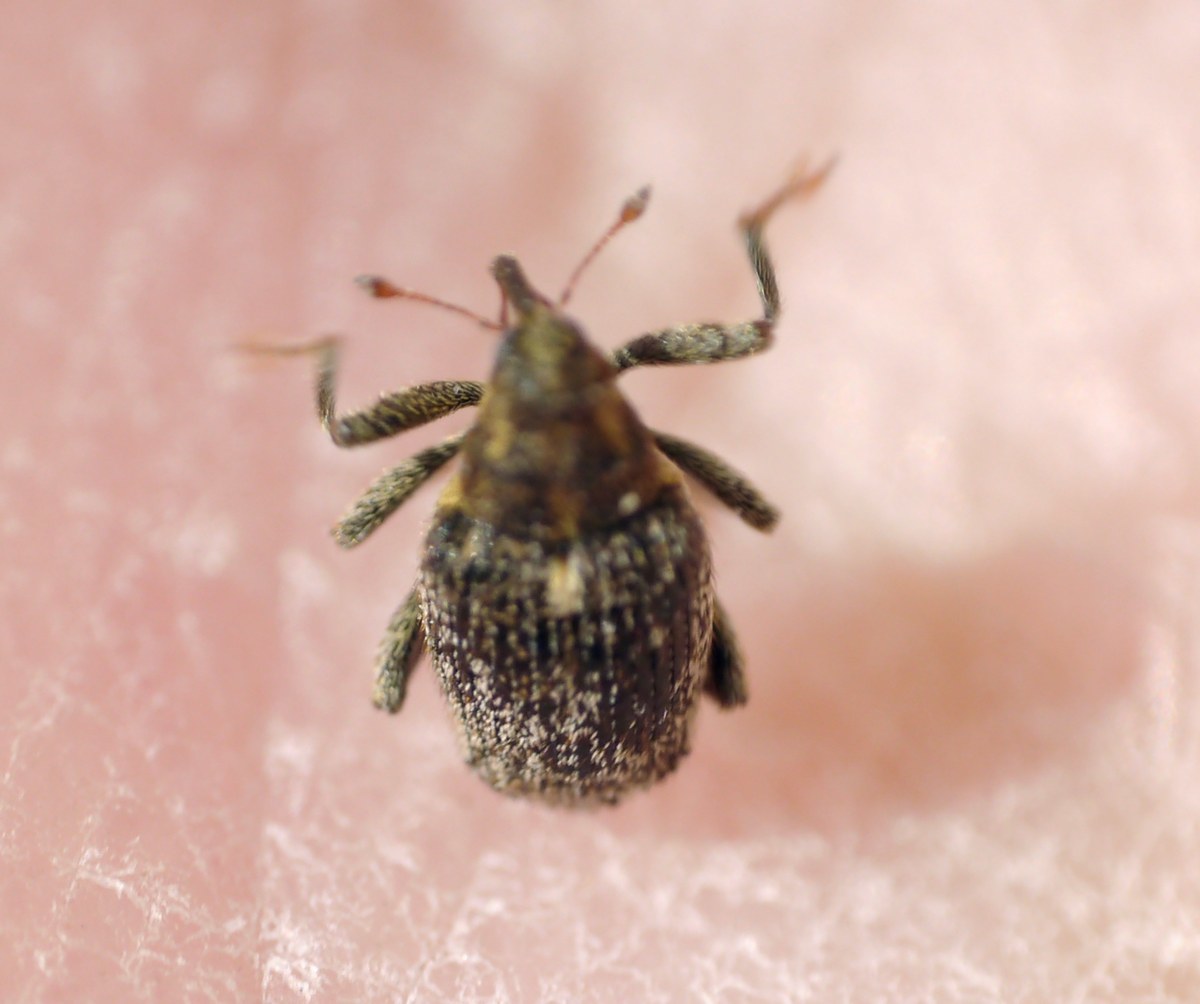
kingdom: Animalia
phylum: Arthropoda
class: Insecta
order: Coleoptera
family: Curculionidae
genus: Ceutorhynchus
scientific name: Ceutorhynchus pallidactylus
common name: Cabbage stem weavil
